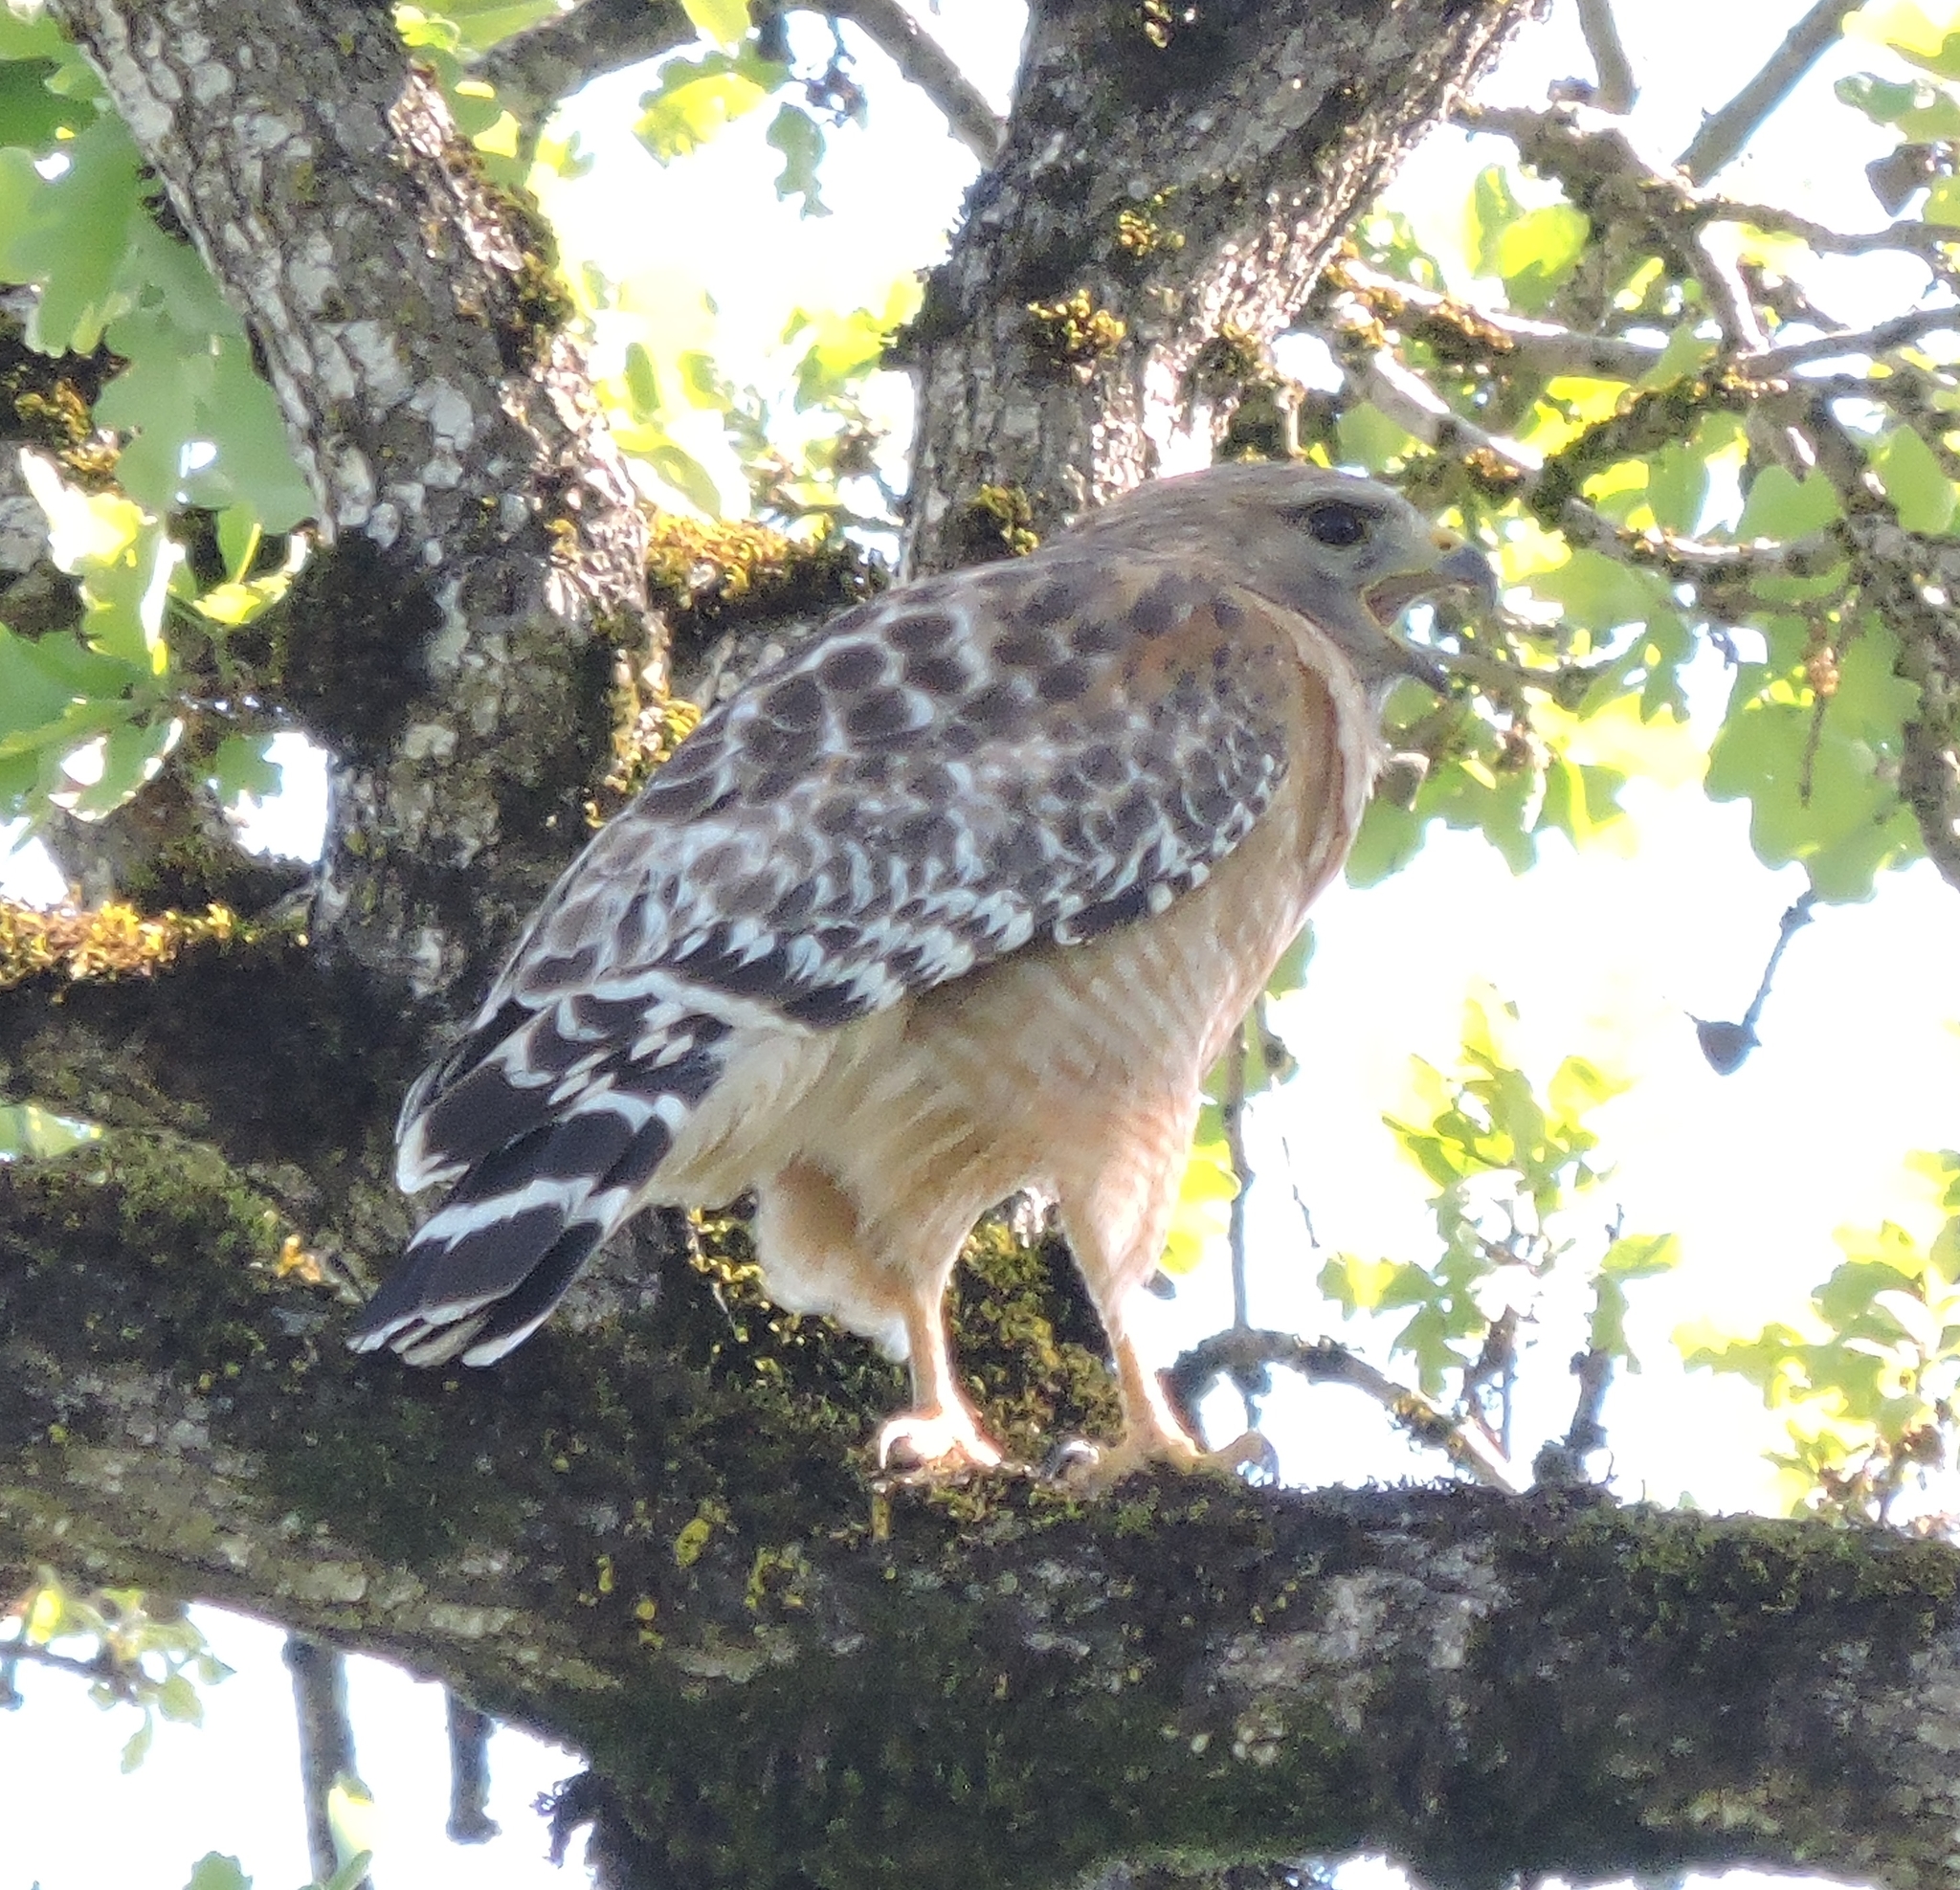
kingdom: Animalia
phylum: Chordata
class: Aves
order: Accipitriformes
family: Accipitridae
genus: Buteo
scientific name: Buteo lineatus
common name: Red-shouldered hawk
